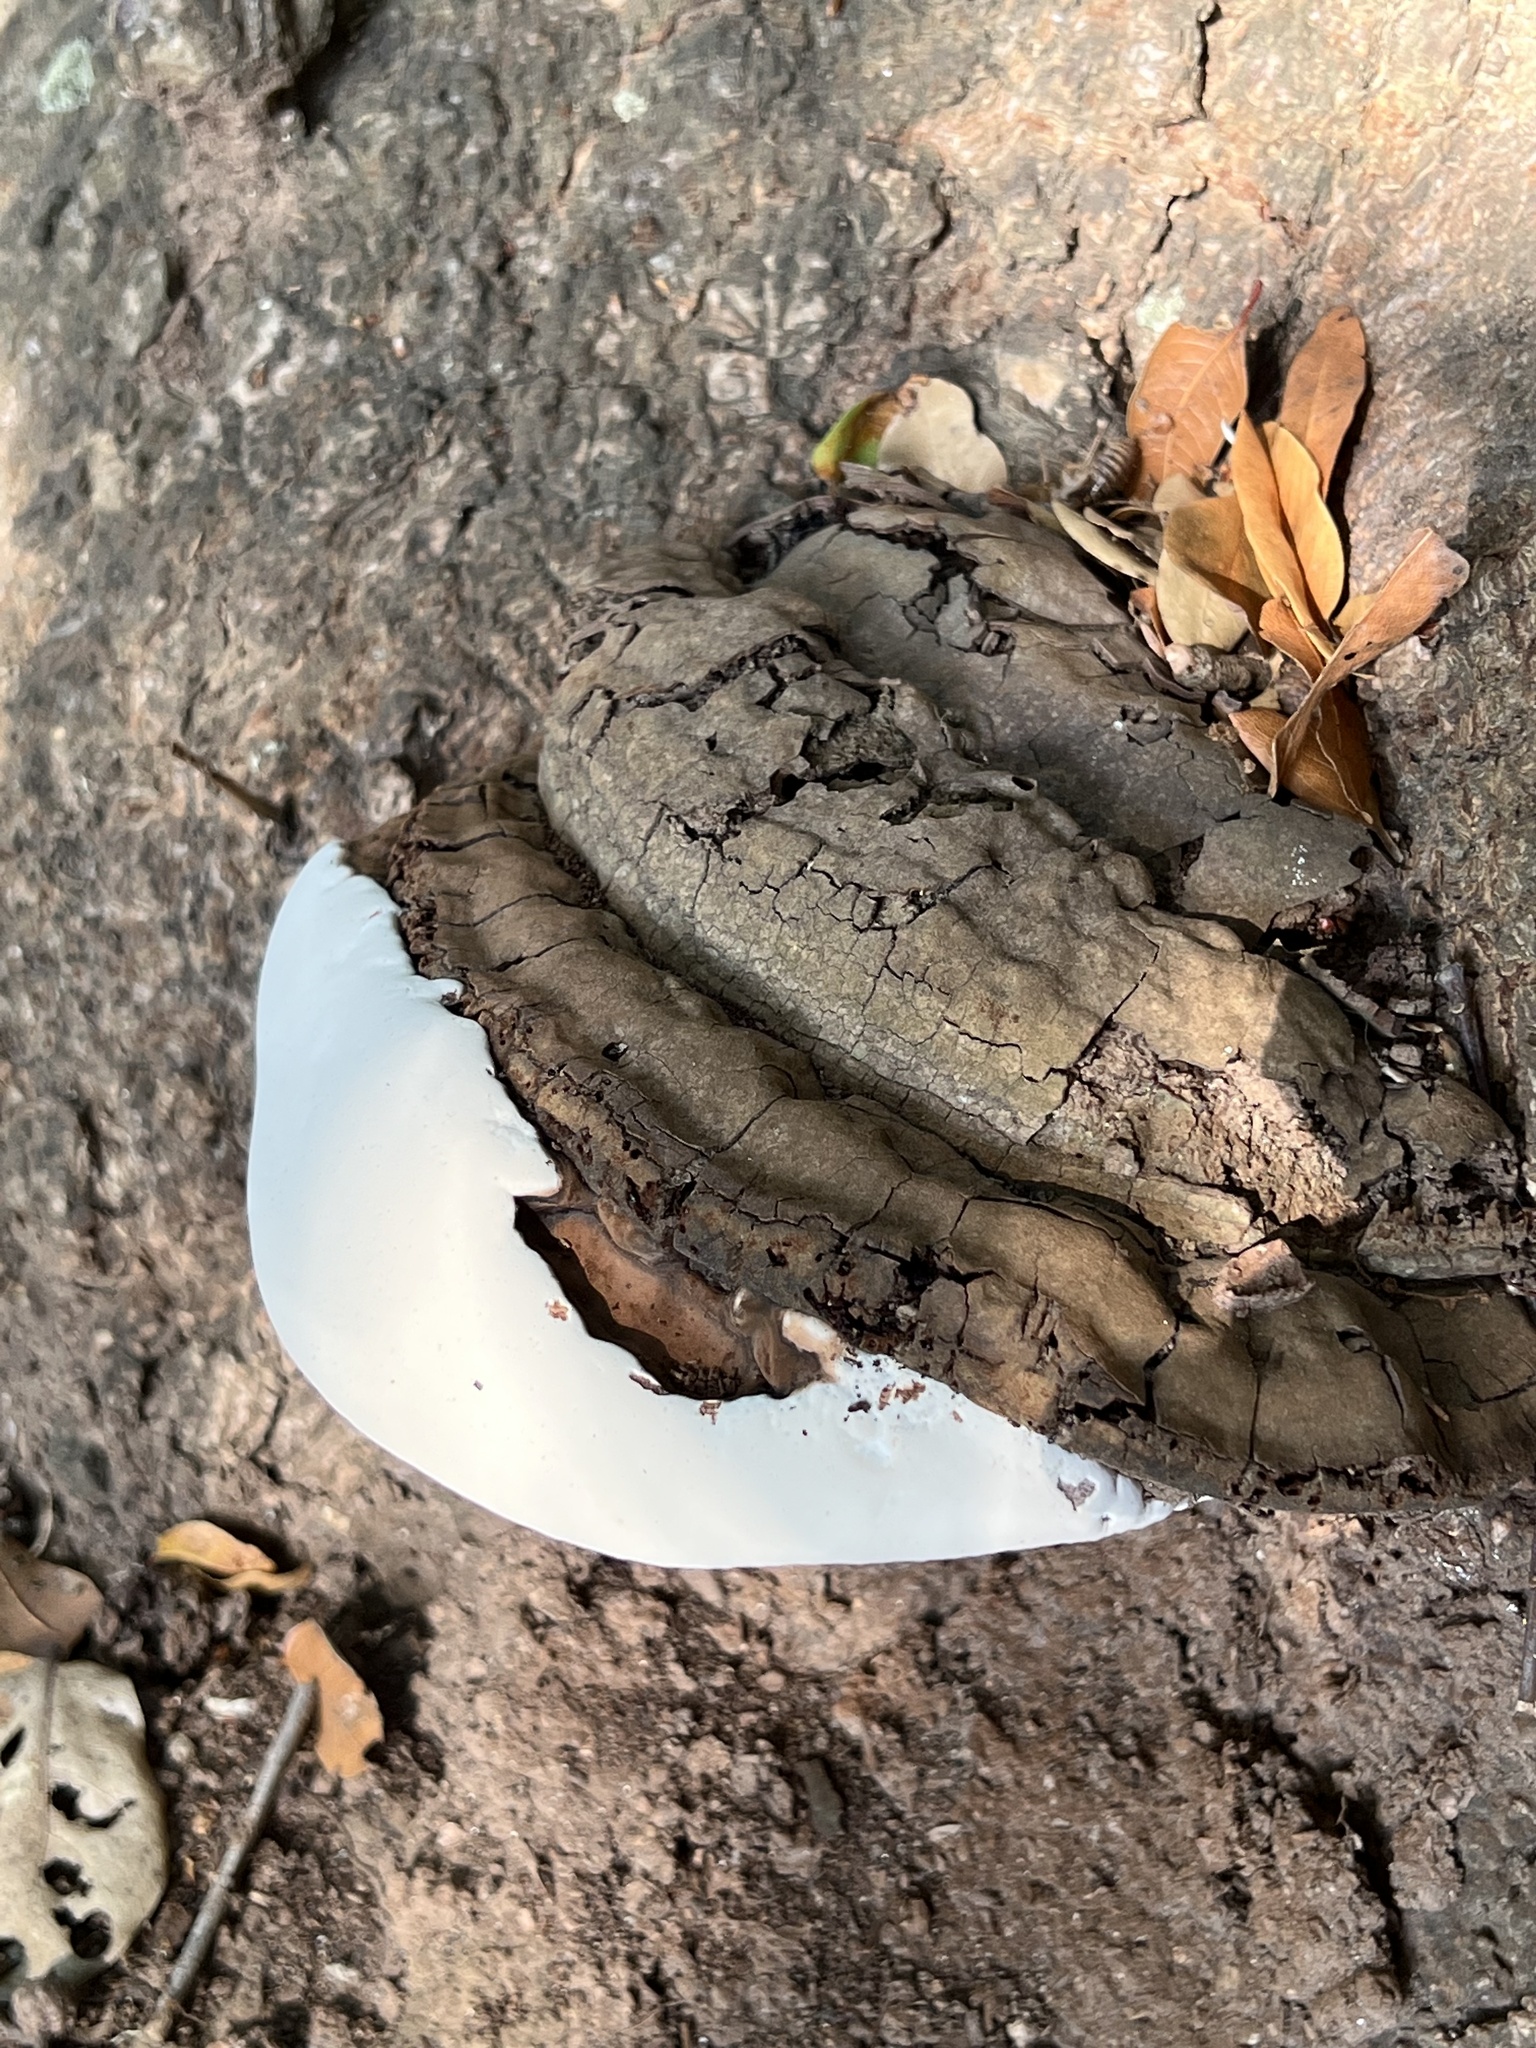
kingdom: Fungi
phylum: Basidiomycota
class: Agaricomycetes
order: Polyporales
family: Polyporaceae
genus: Ganoderma
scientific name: Ganoderma brownii
